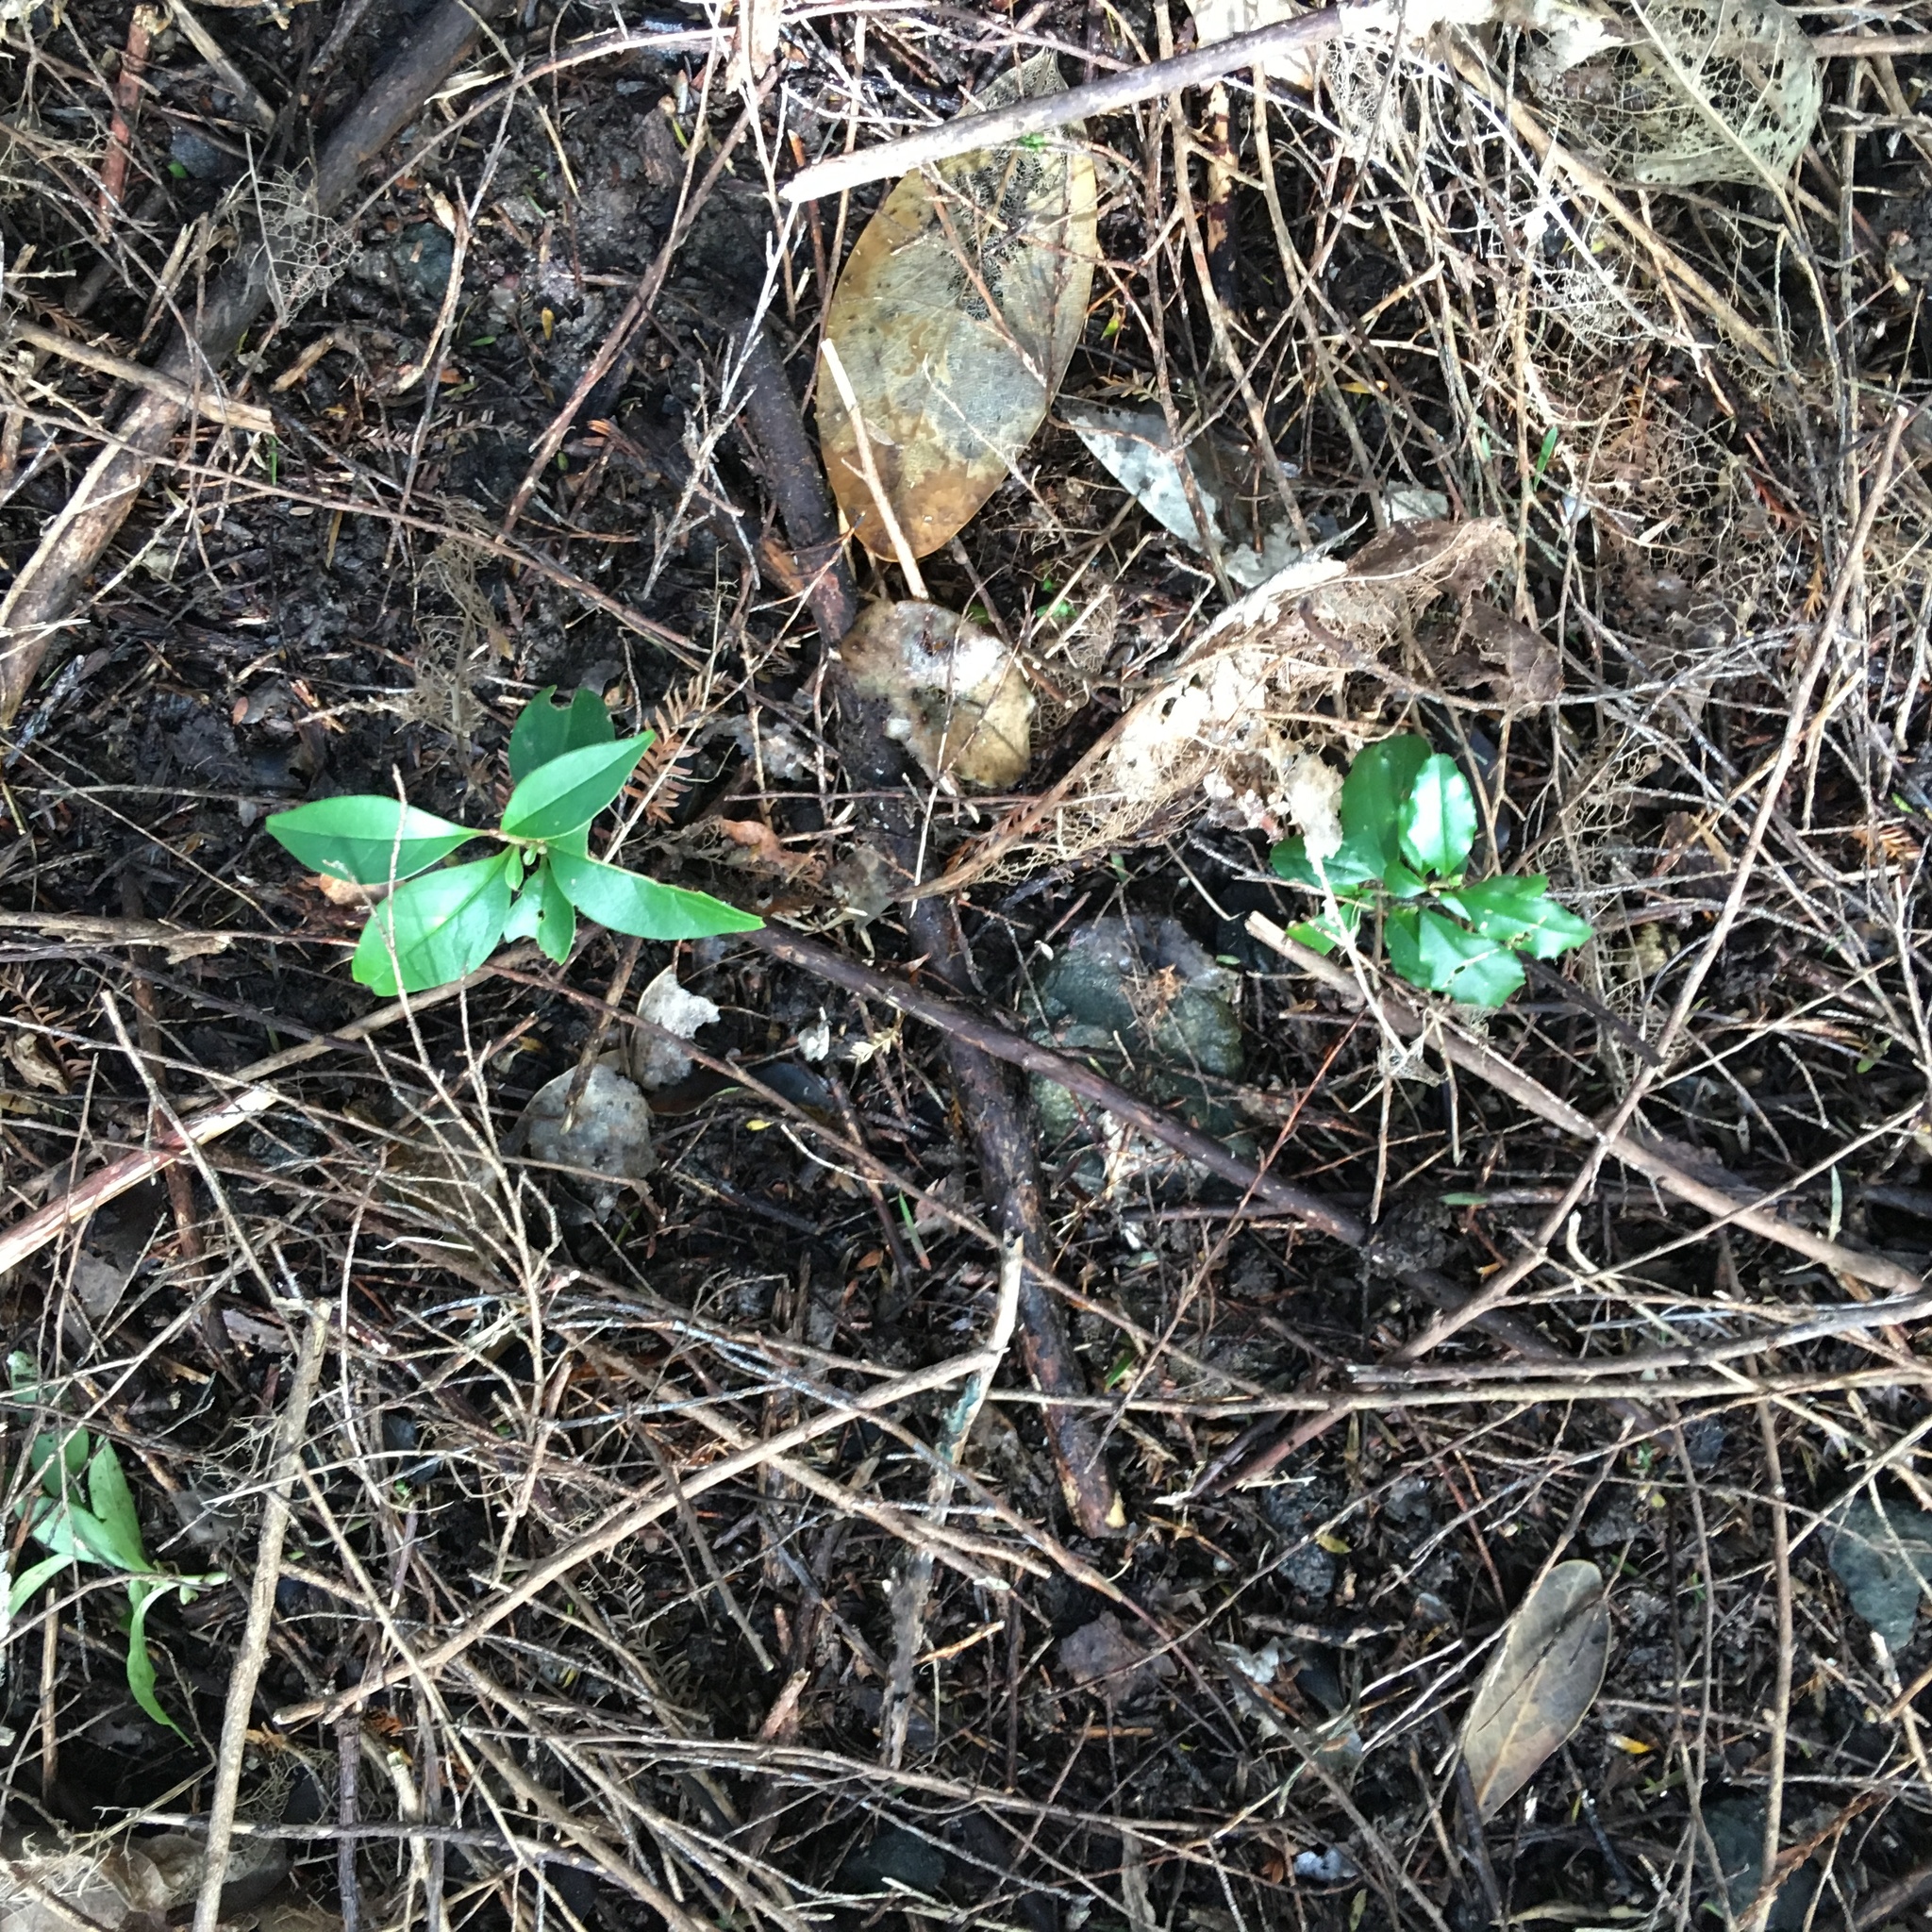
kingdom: Plantae
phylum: Tracheophyta
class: Magnoliopsida
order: Lamiales
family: Oleaceae
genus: Ligustrum
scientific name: Ligustrum sinense
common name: Chinese privet
